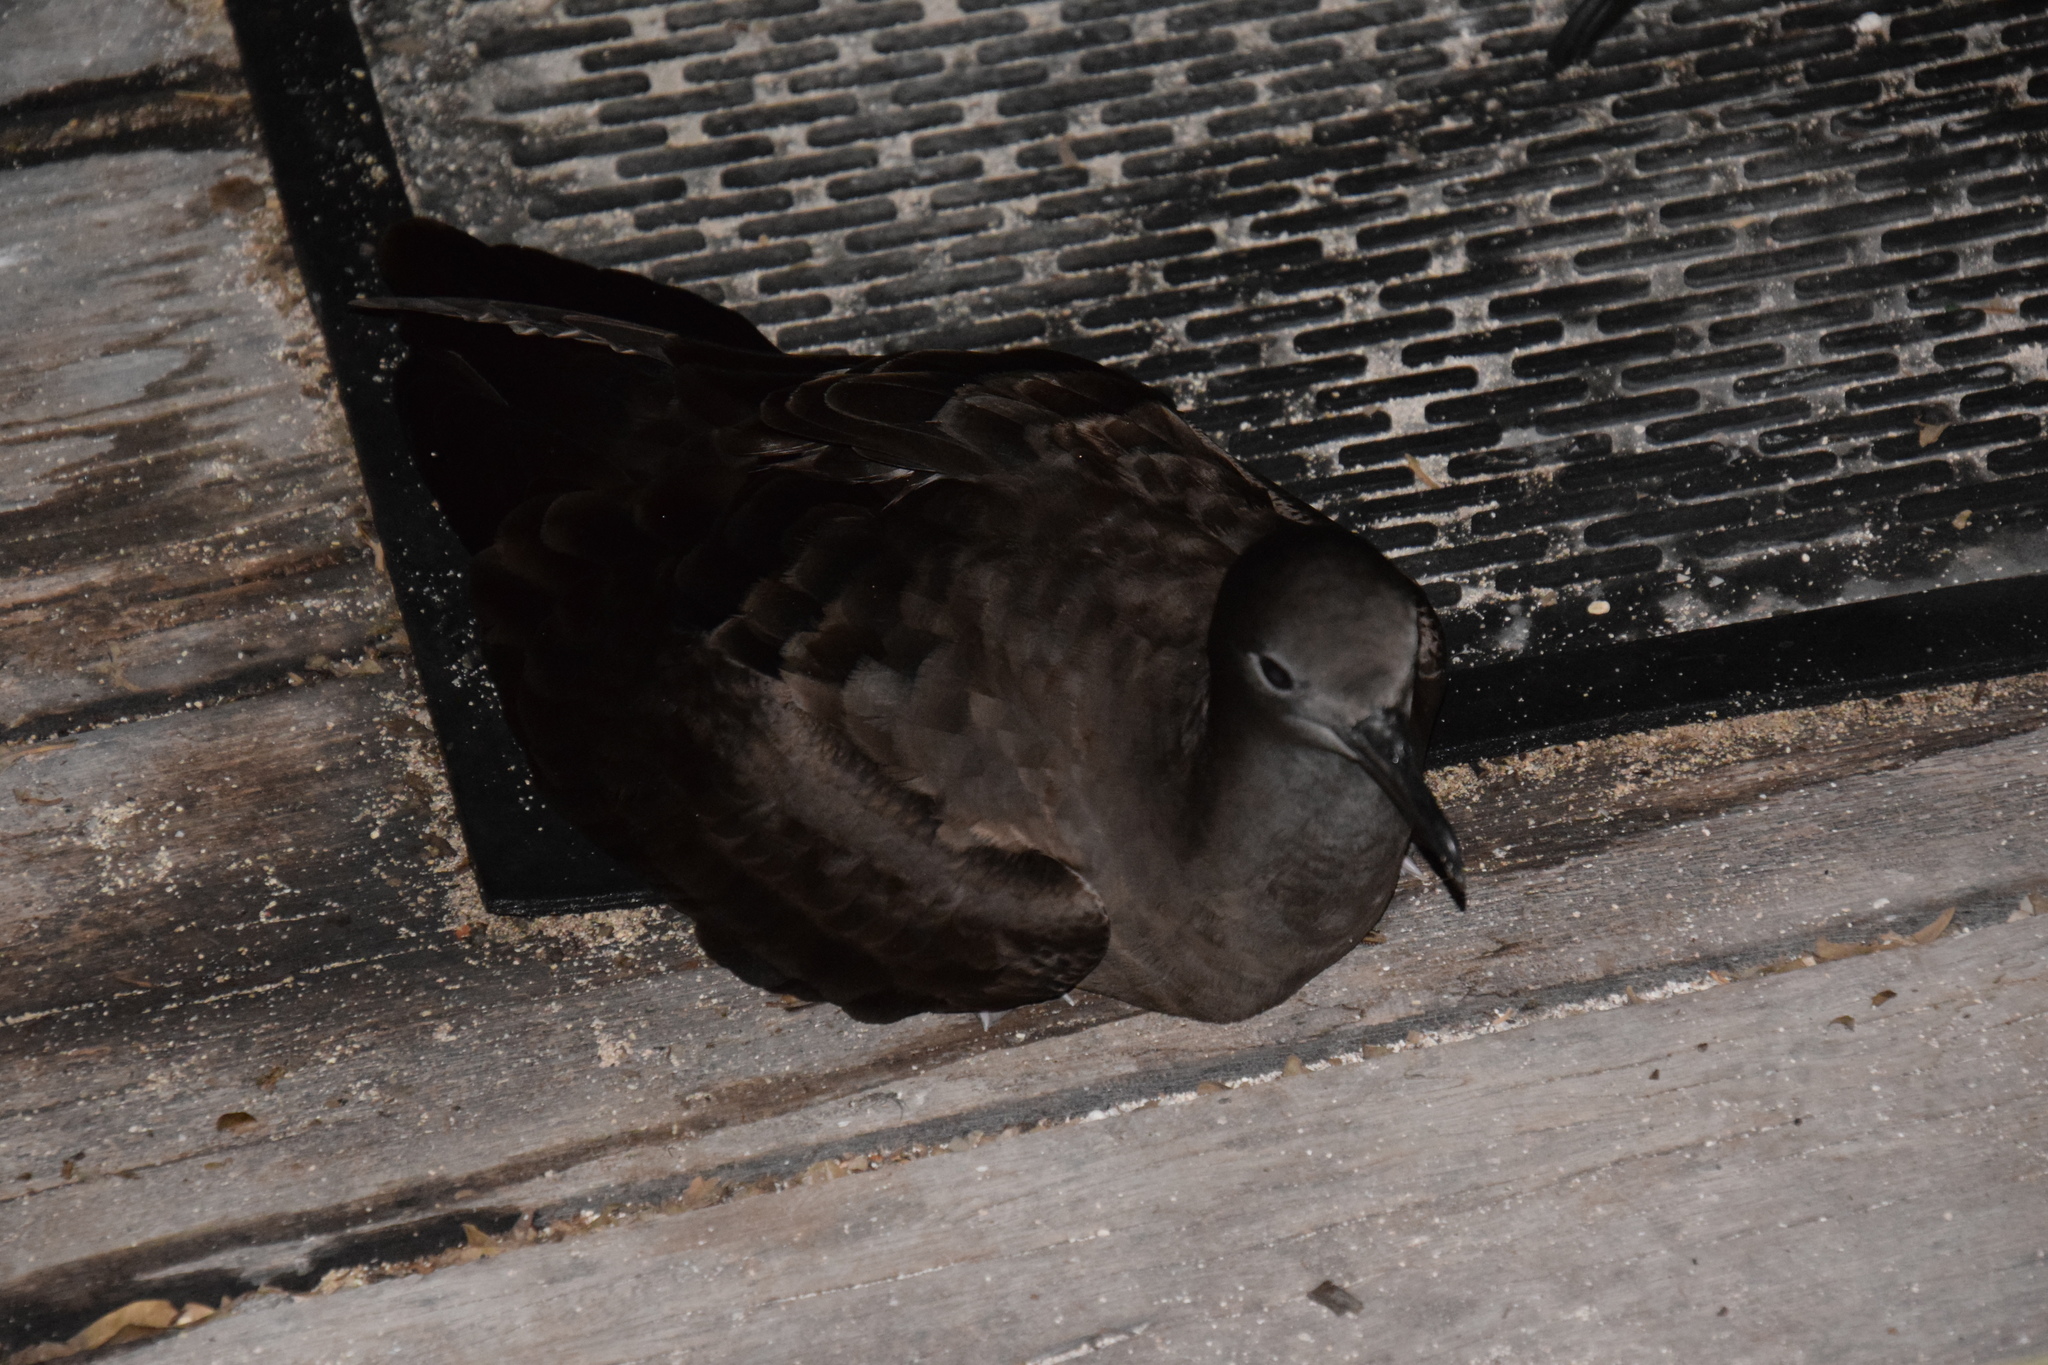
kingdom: Animalia
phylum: Chordata
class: Aves
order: Procellariiformes
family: Procellariidae
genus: Puffinus
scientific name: Puffinus pacificus
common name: Wedge-tailed shearwater
